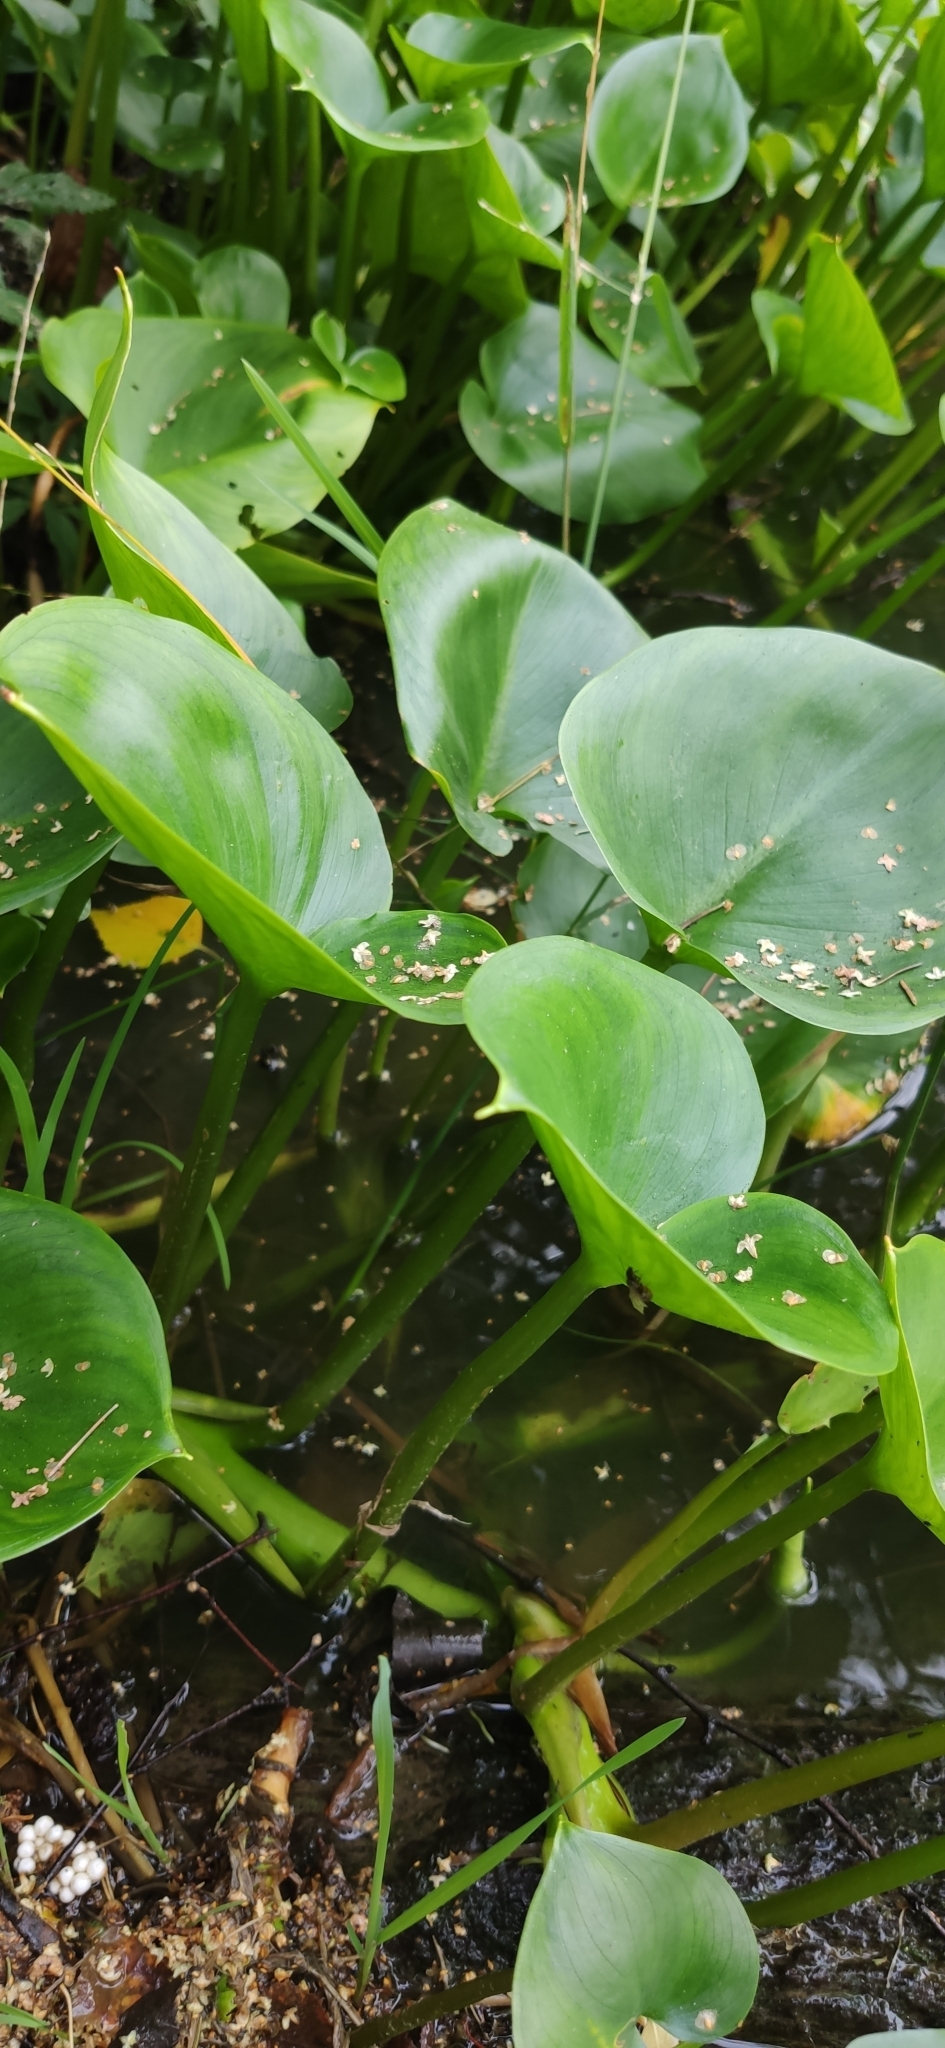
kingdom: Plantae
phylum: Tracheophyta
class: Liliopsida
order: Alismatales
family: Araceae
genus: Calla
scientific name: Calla palustris
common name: Bog arum
